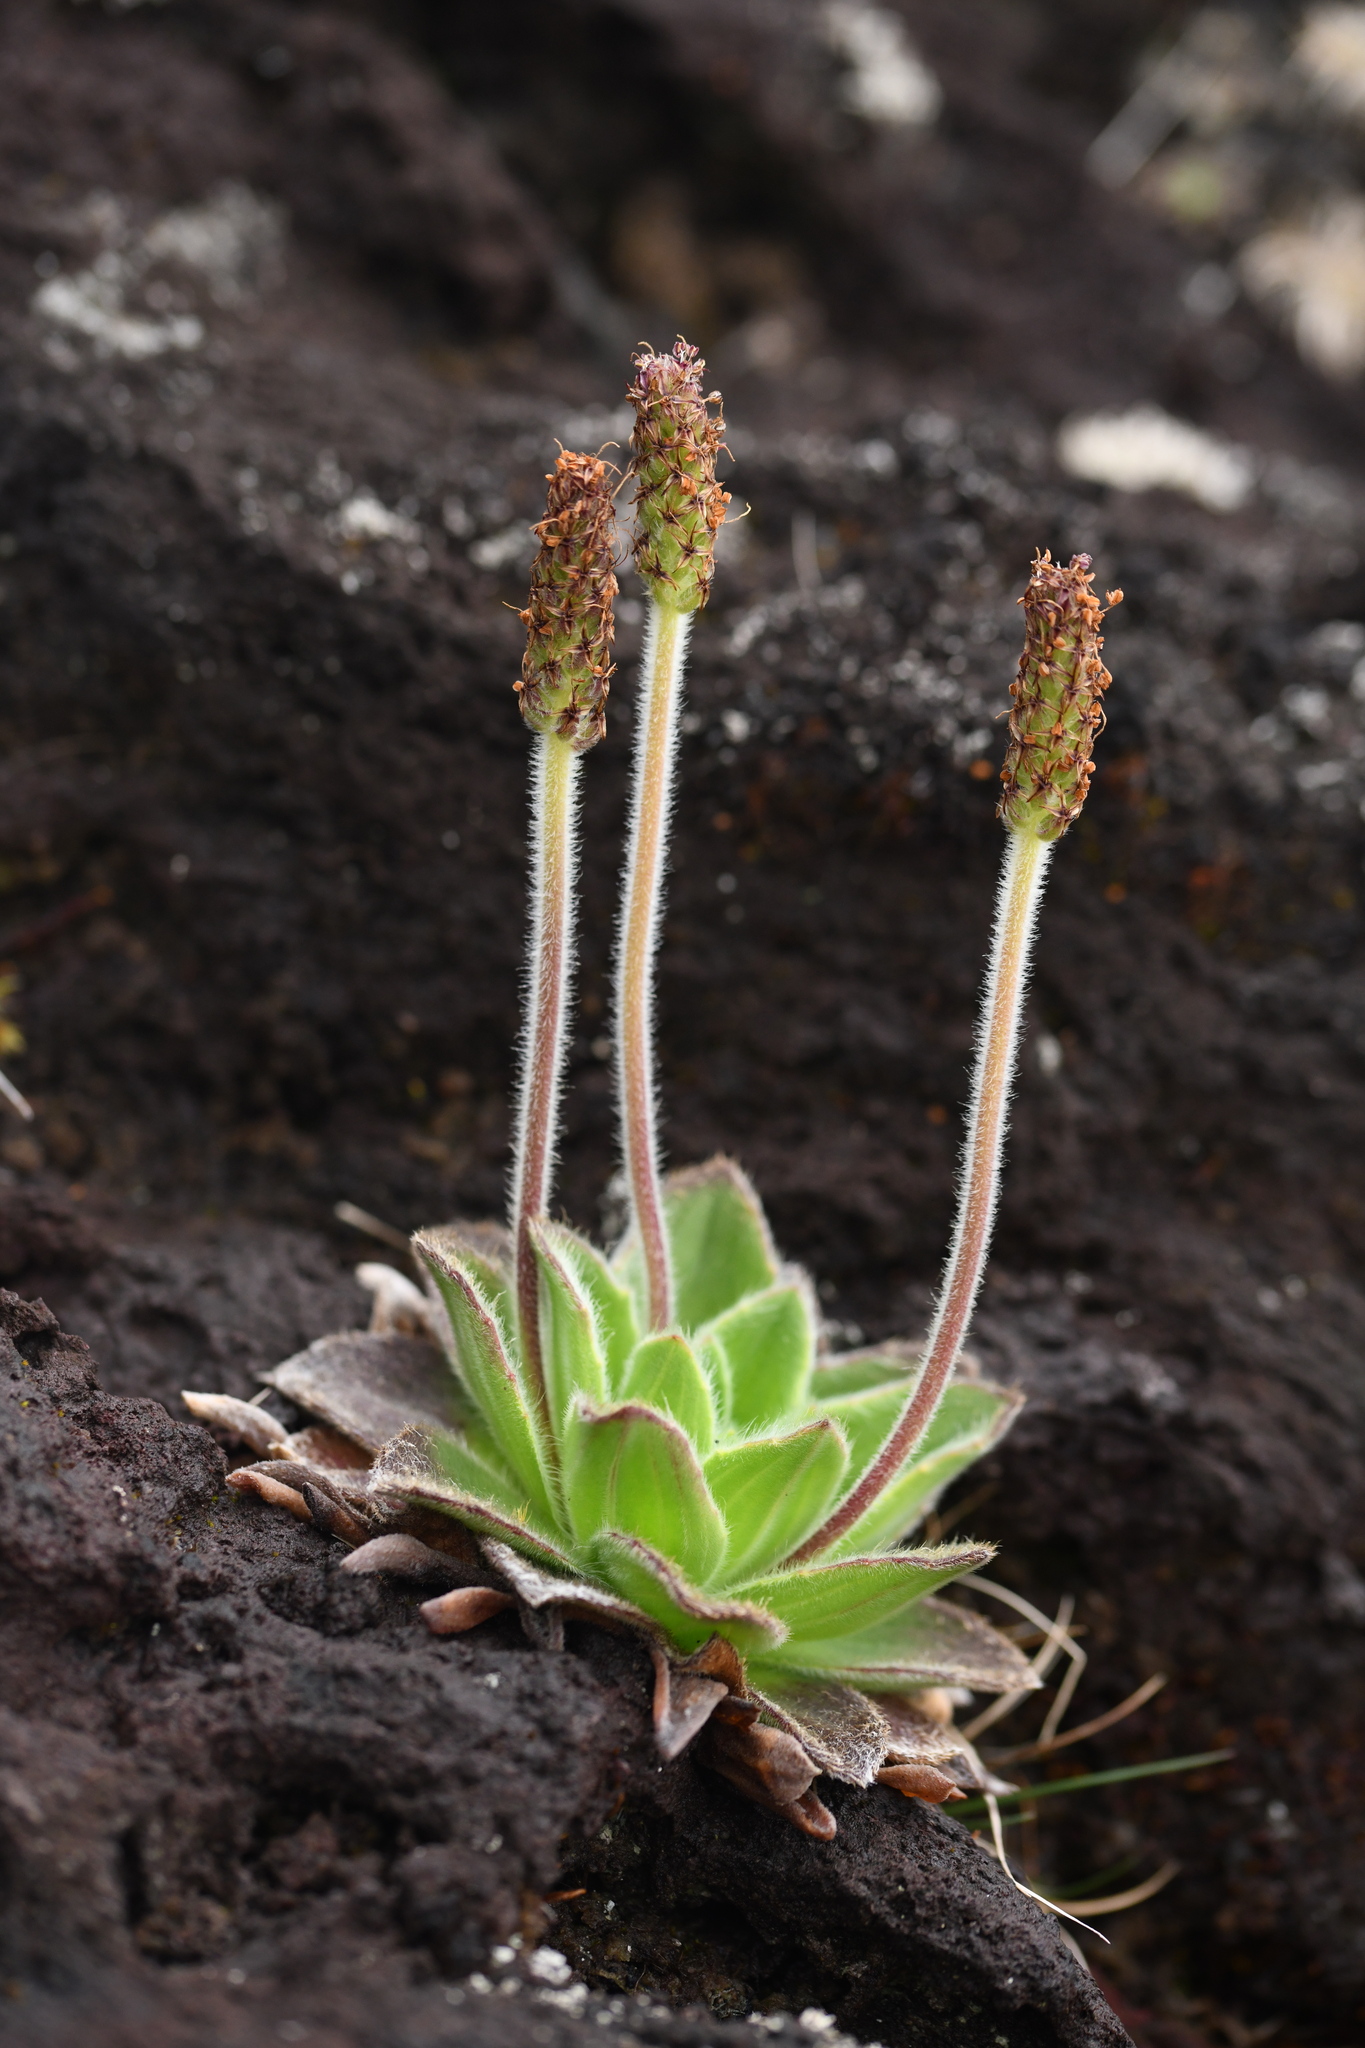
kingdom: Plantae
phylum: Tracheophyta
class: Magnoliopsida
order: Lamiales
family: Plantaginaceae
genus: Plantago
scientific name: Plantago stauntonii
